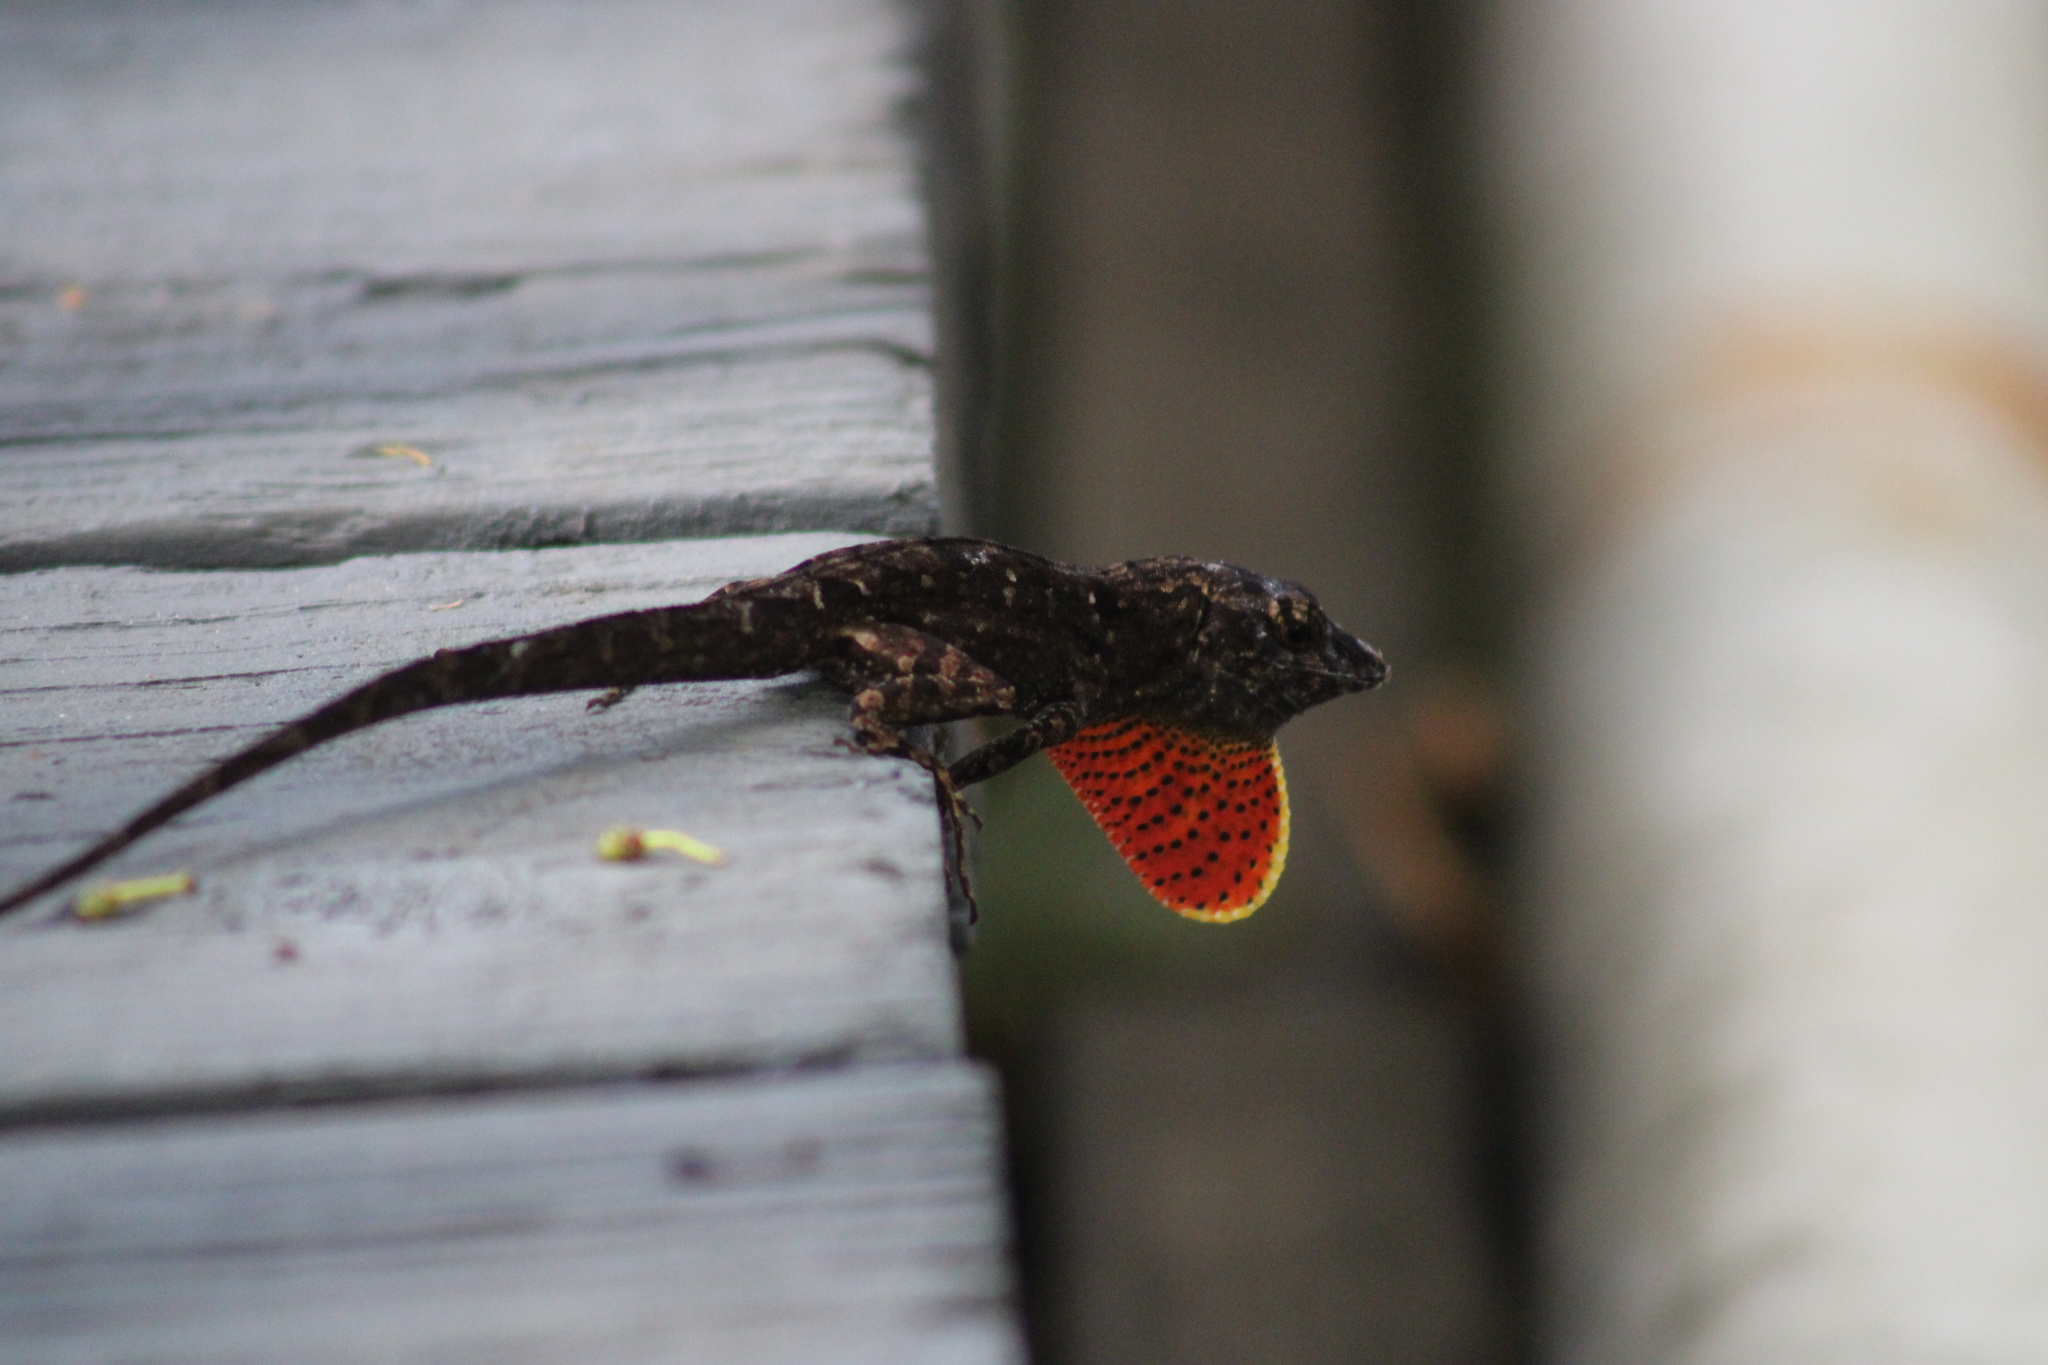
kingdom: Animalia
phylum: Chordata
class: Squamata
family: Dactyloidae
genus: Anolis
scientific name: Anolis sagrei
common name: Brown anole
